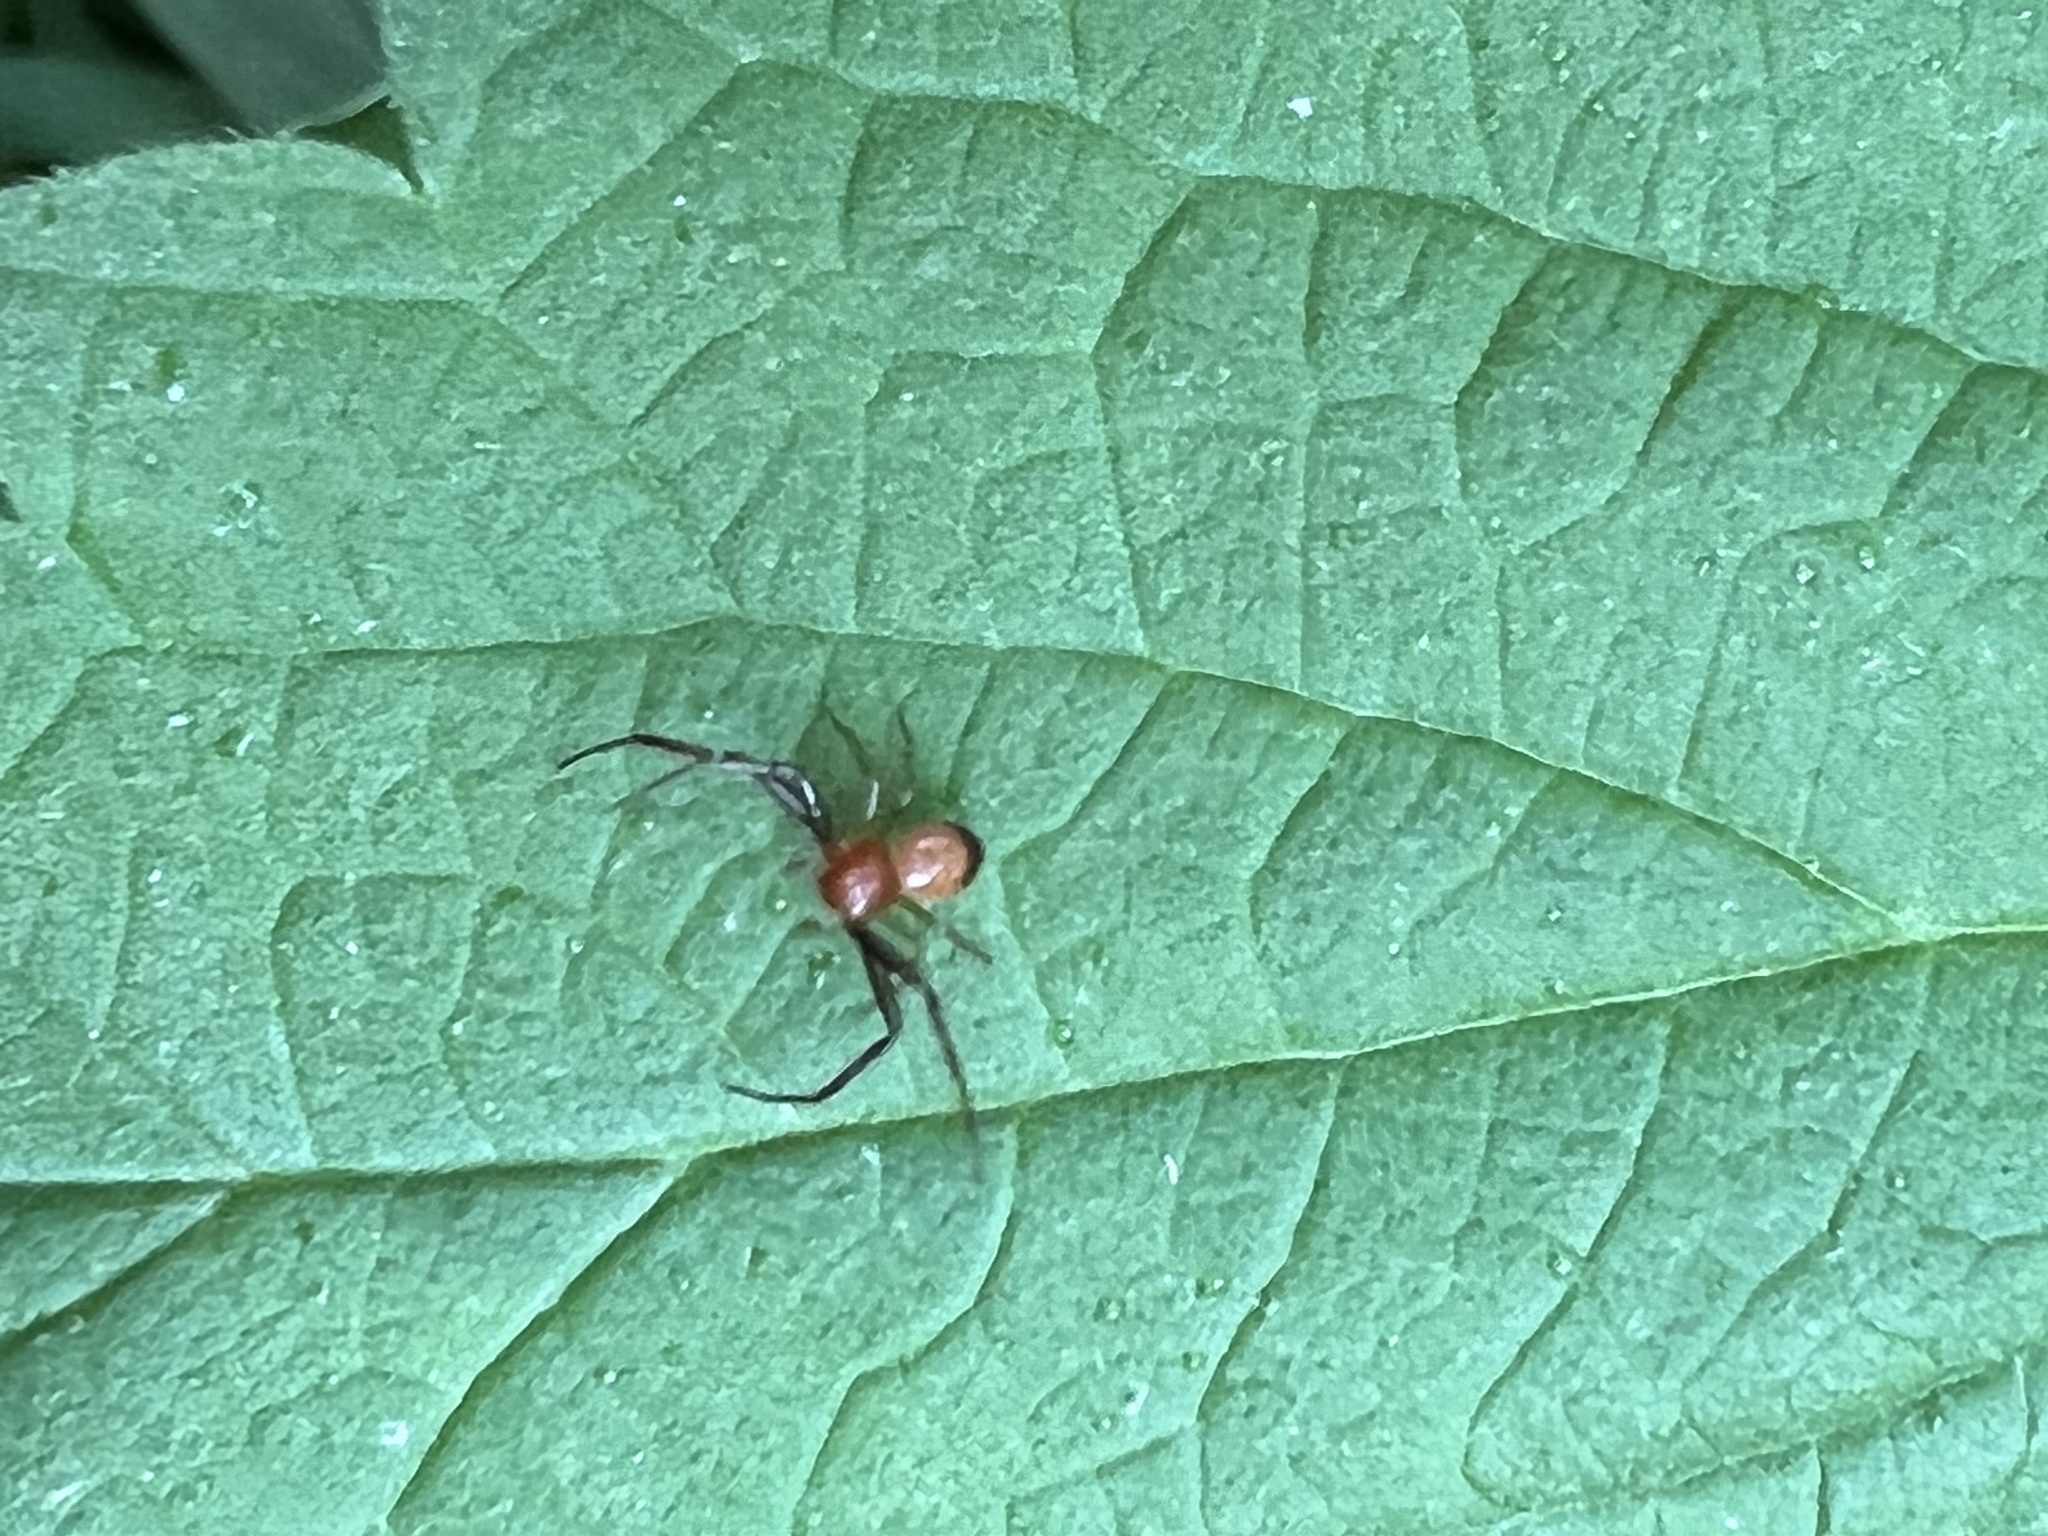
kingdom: Animalia
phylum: Arthropoda
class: Arachnida
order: Araneae
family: Thomisidae
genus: Synema
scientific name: Synema parvulum
